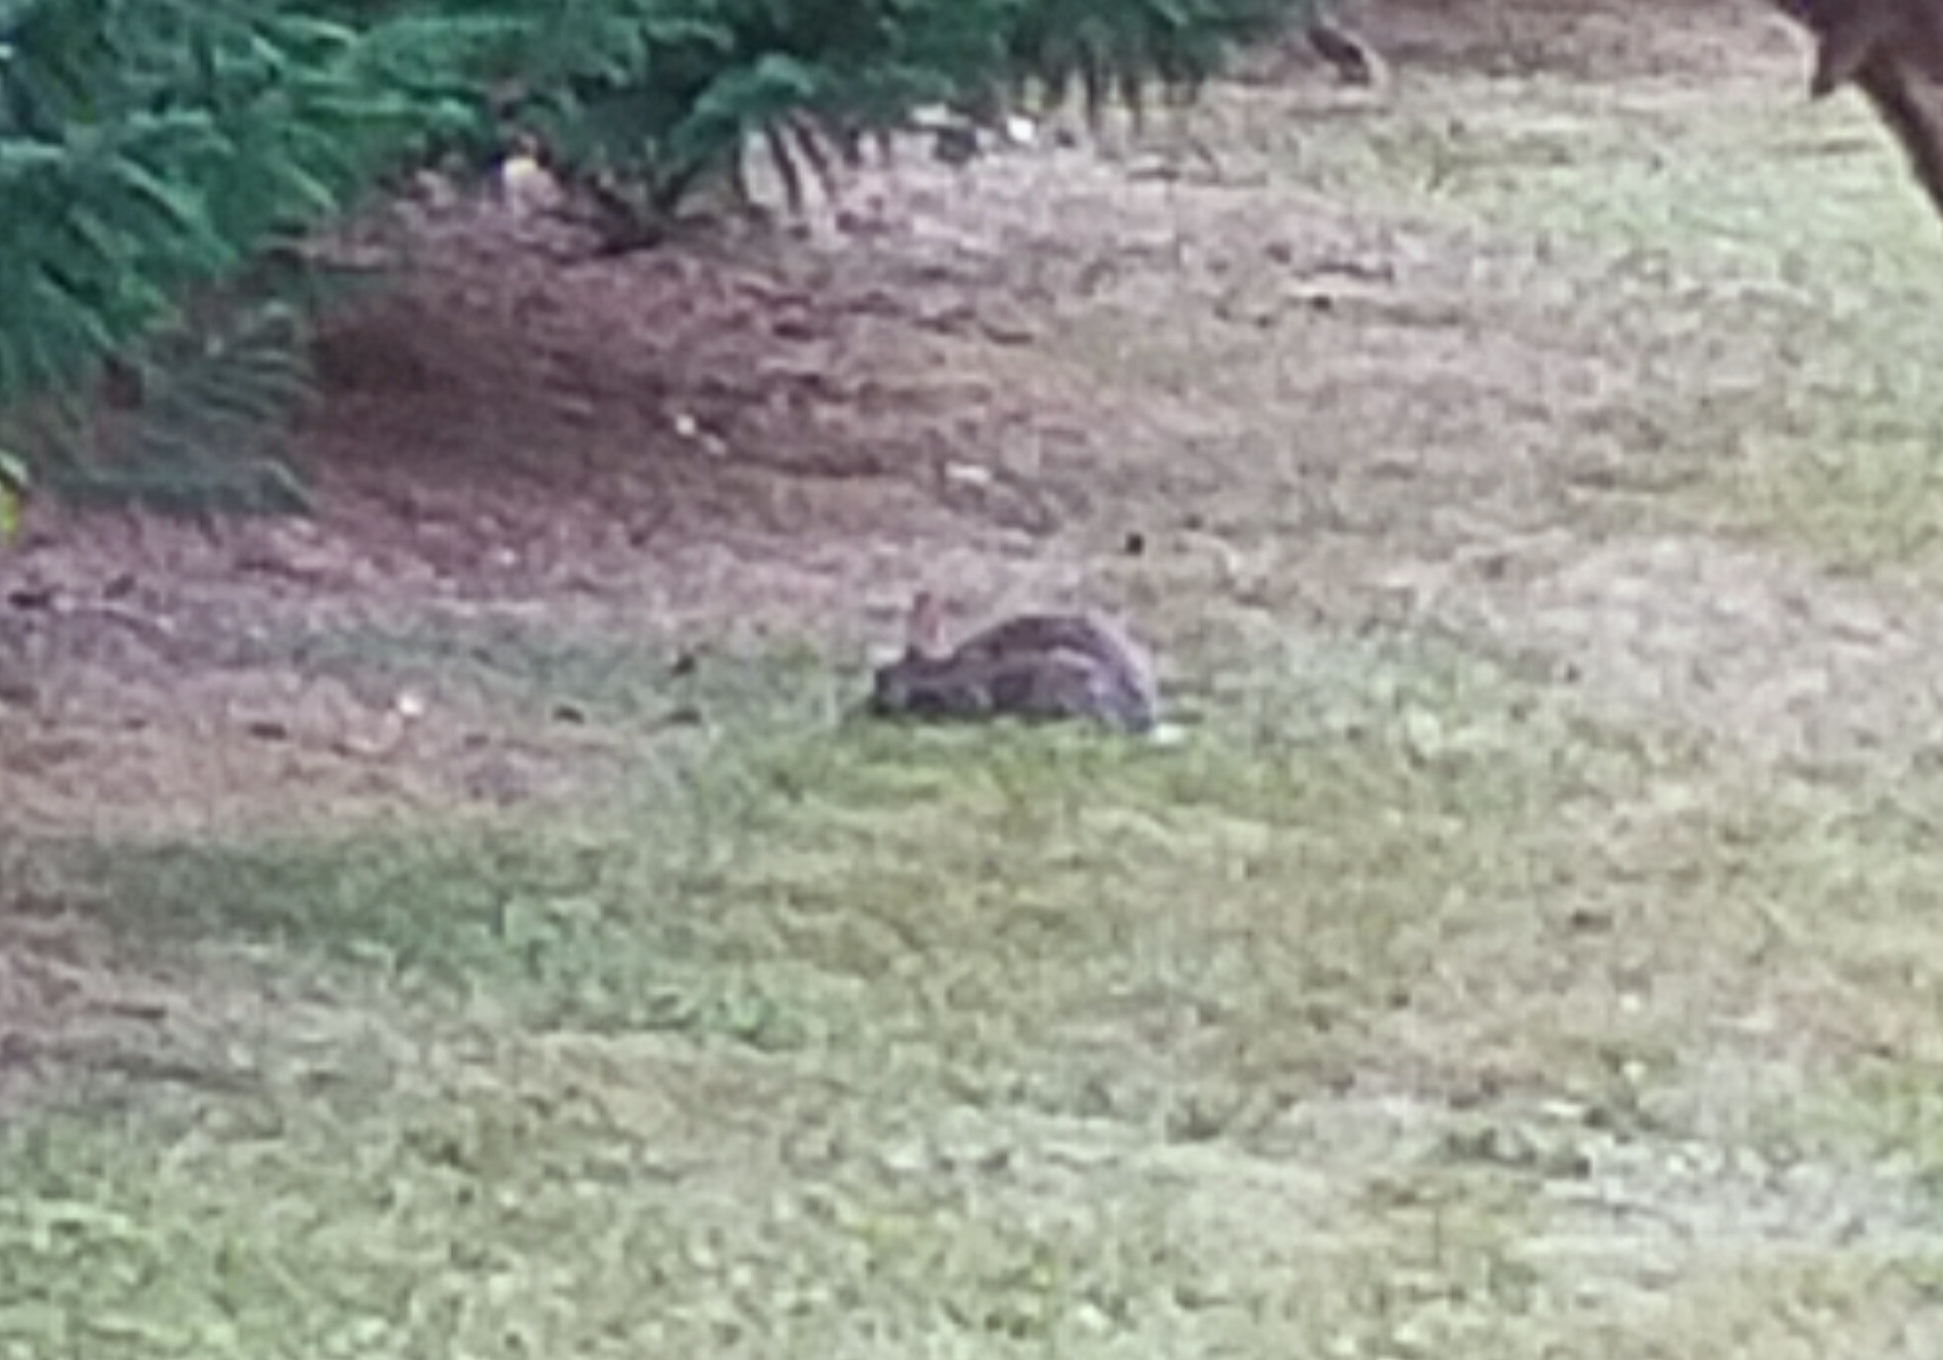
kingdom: Animalia
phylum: Chordata
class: Mammalia
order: Lagomorpha
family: Leporidae
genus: Oryctolagus
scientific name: Oryctolagus cuniculus
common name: European rabbit
